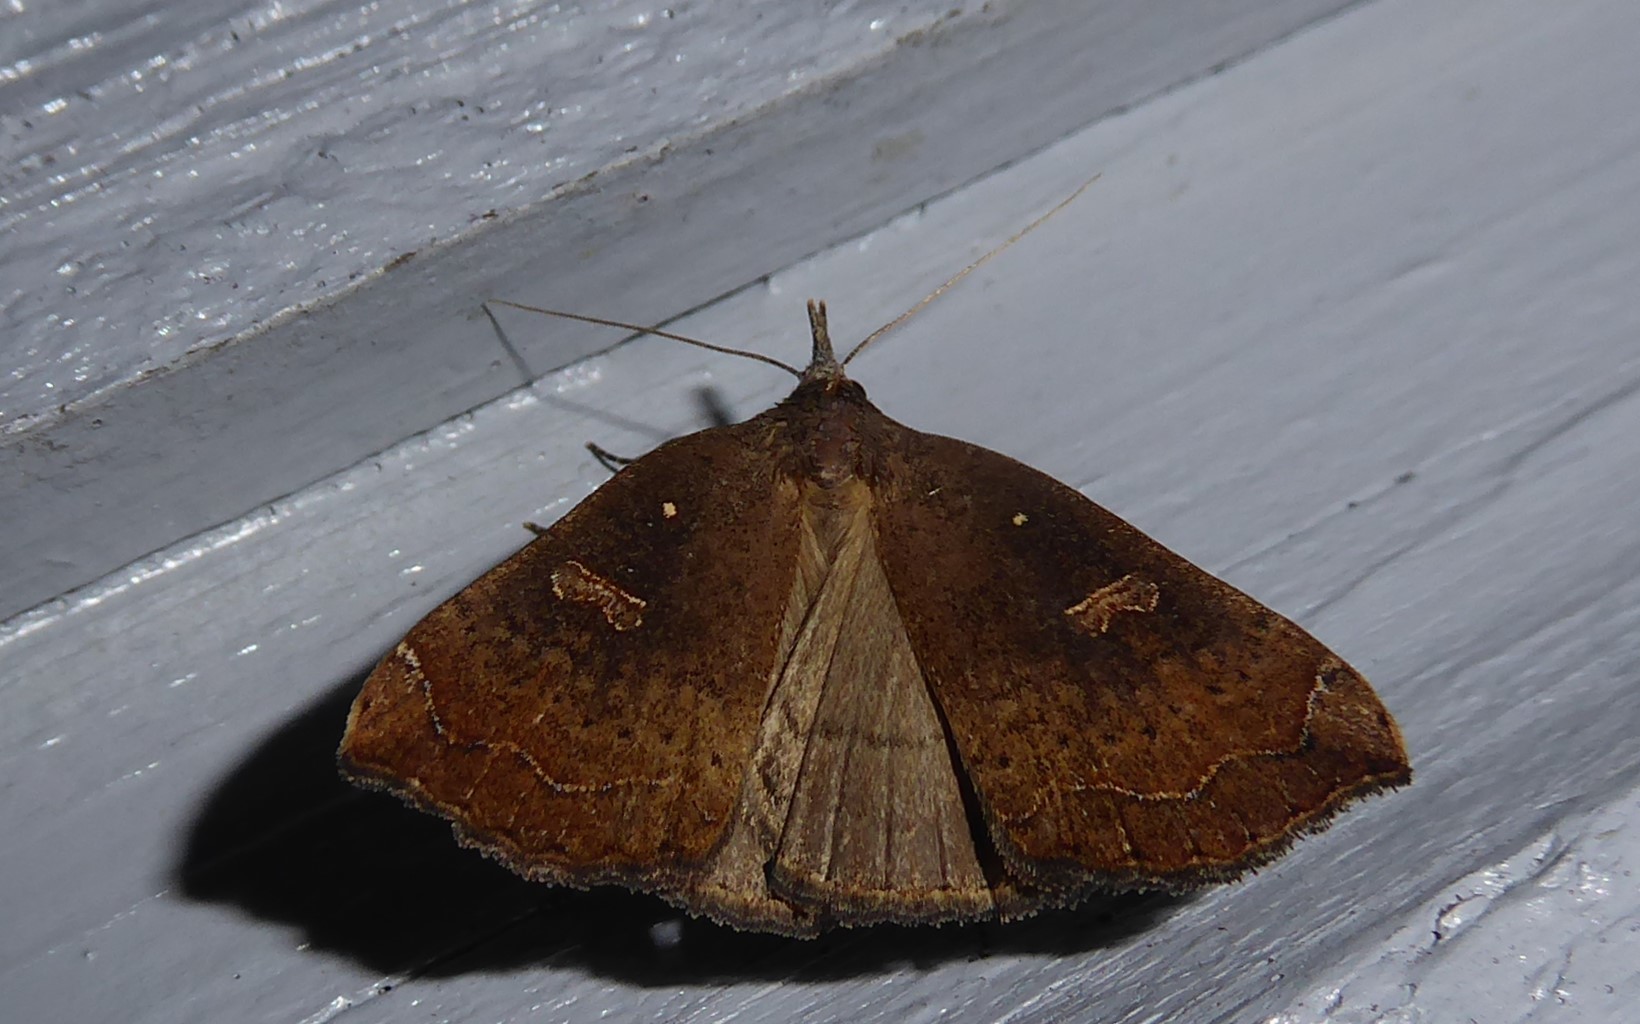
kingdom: Animalia
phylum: Arthropoda
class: Insecta
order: Lepidoptera
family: Erebidae
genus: Rhapsa
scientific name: Rhapsa scotosialis
